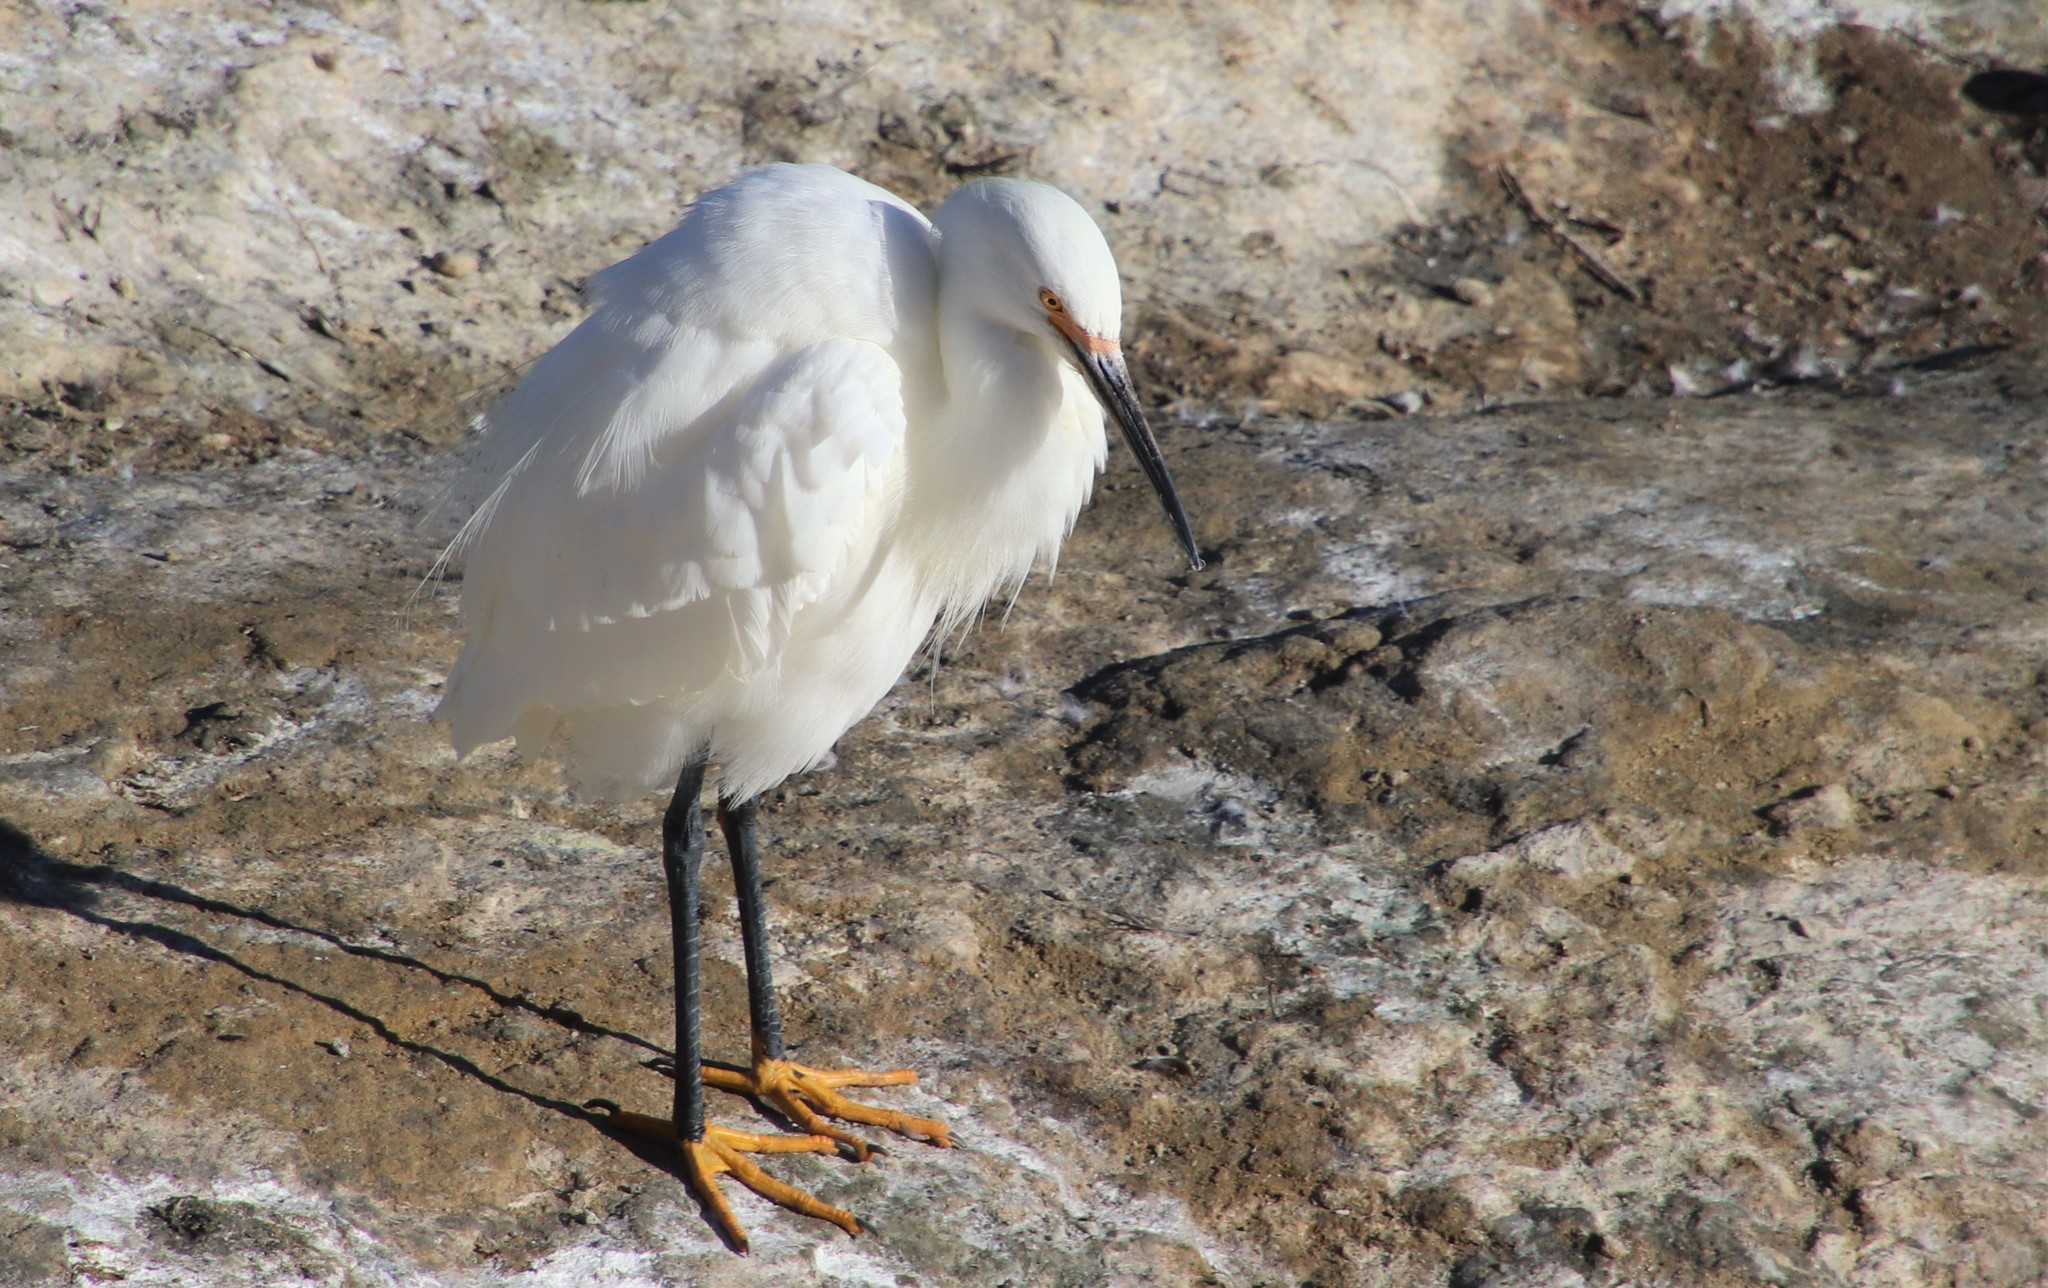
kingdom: Animalia
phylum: Chordata
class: Aves
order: Pelecaniformes
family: Ardeidae
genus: Egretta
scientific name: Egretta thula
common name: Snowy egret
